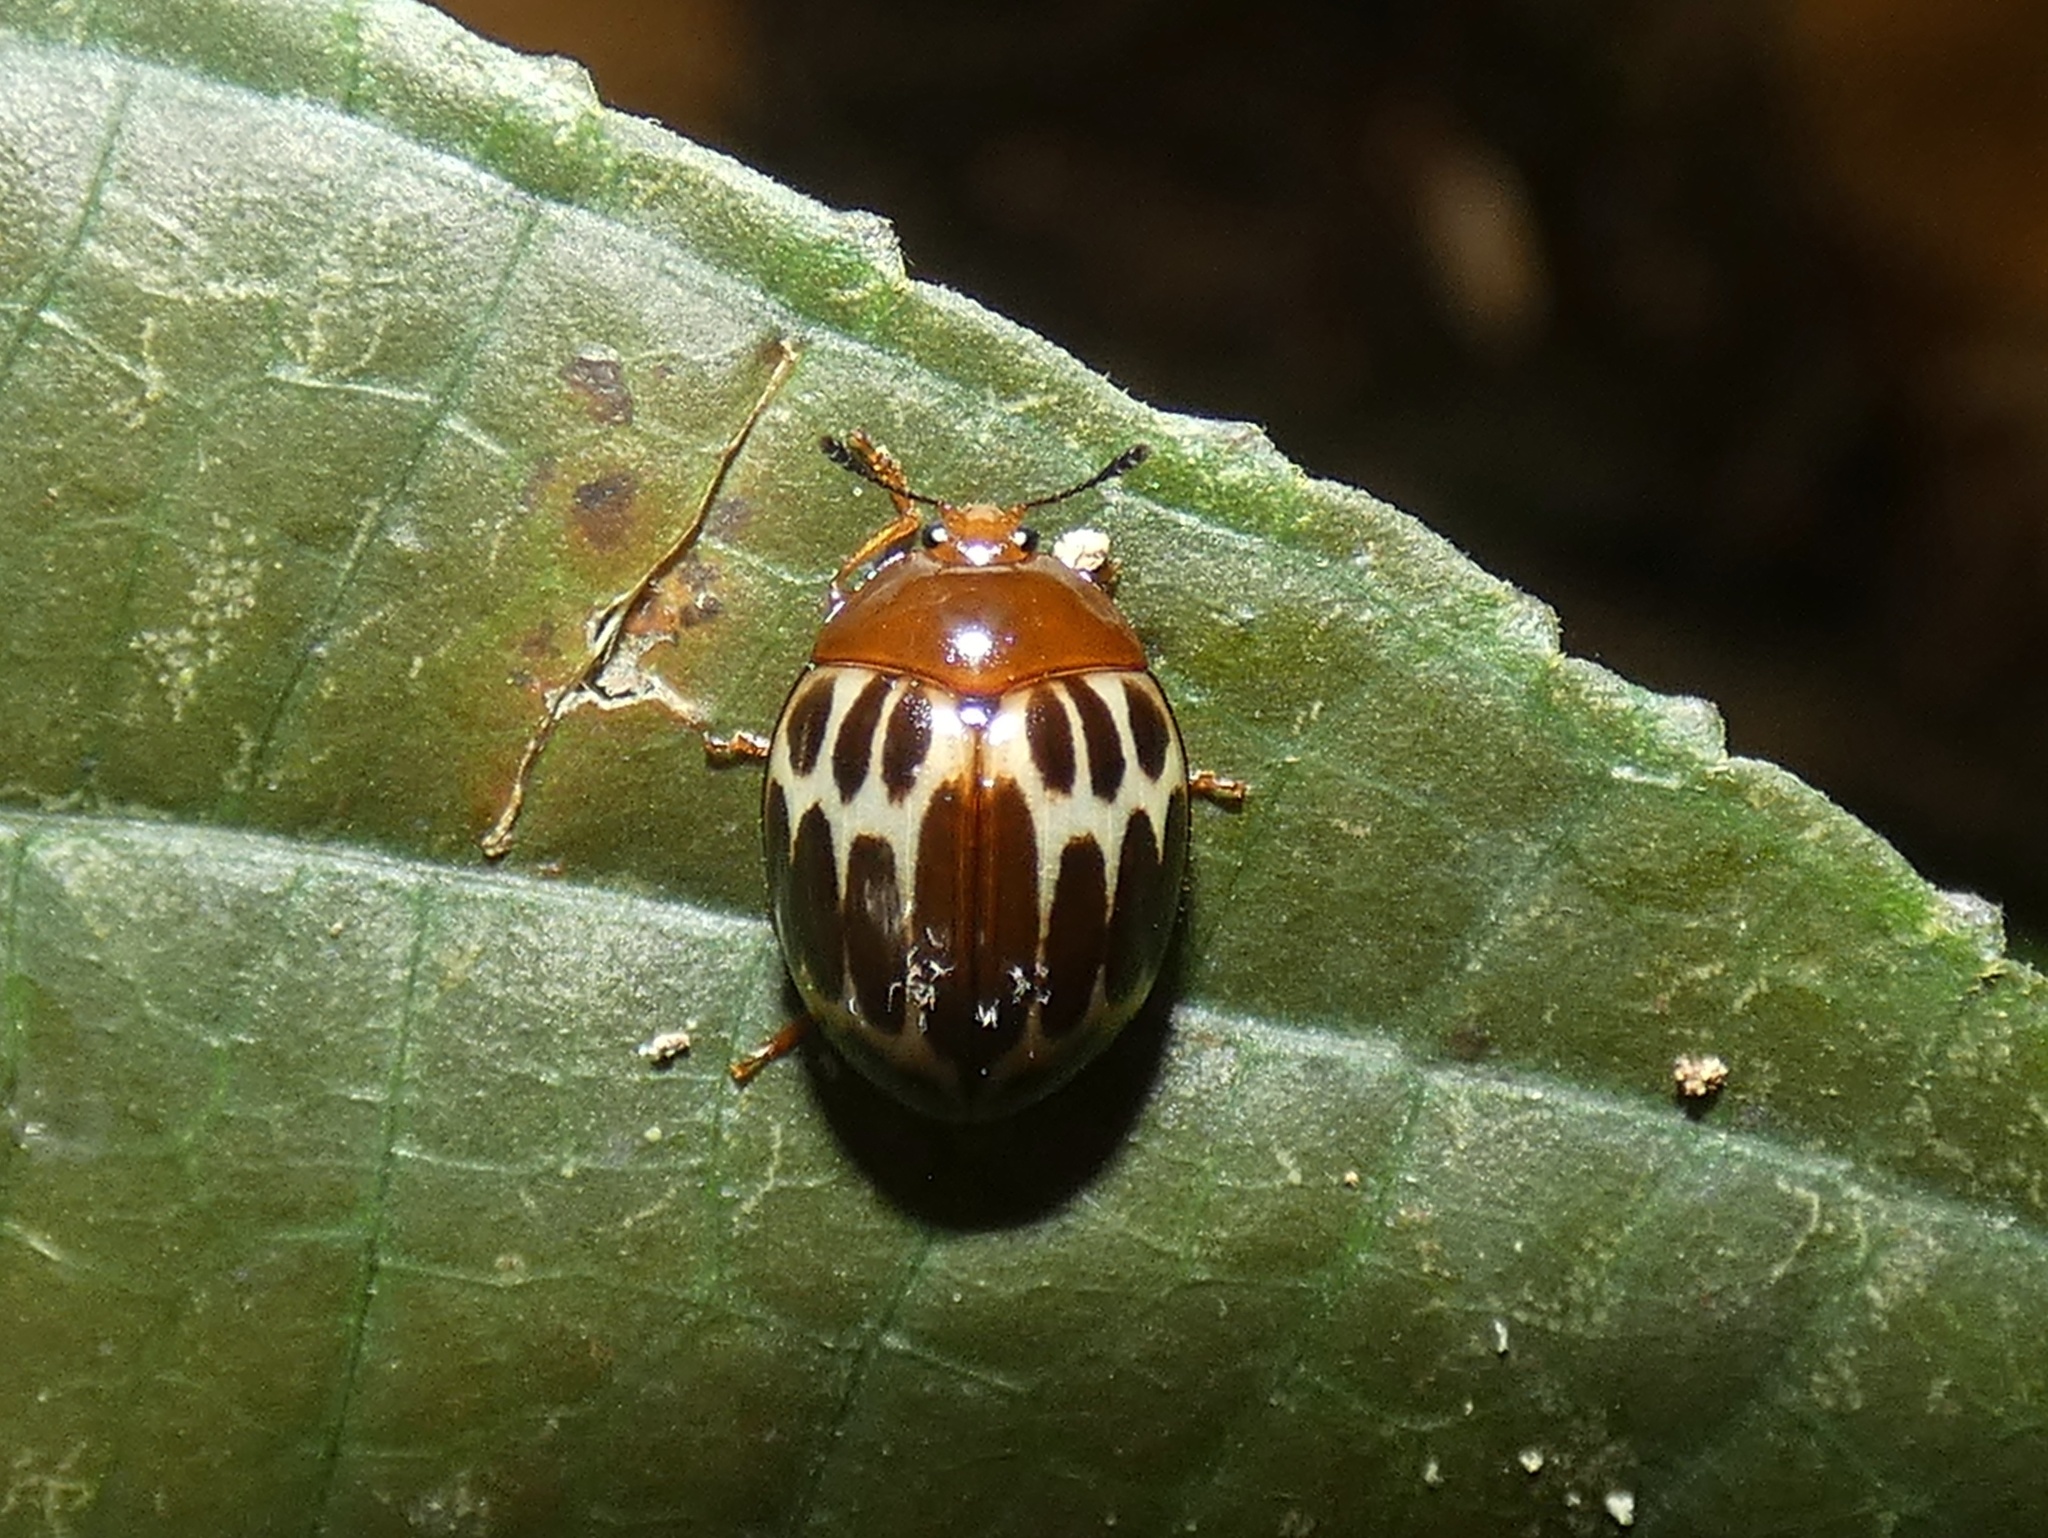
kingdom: Animalia
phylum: Arthropoda
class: Insecta
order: Coleoptera
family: Erotylidae
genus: Iphiclus
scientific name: Iphiclus
